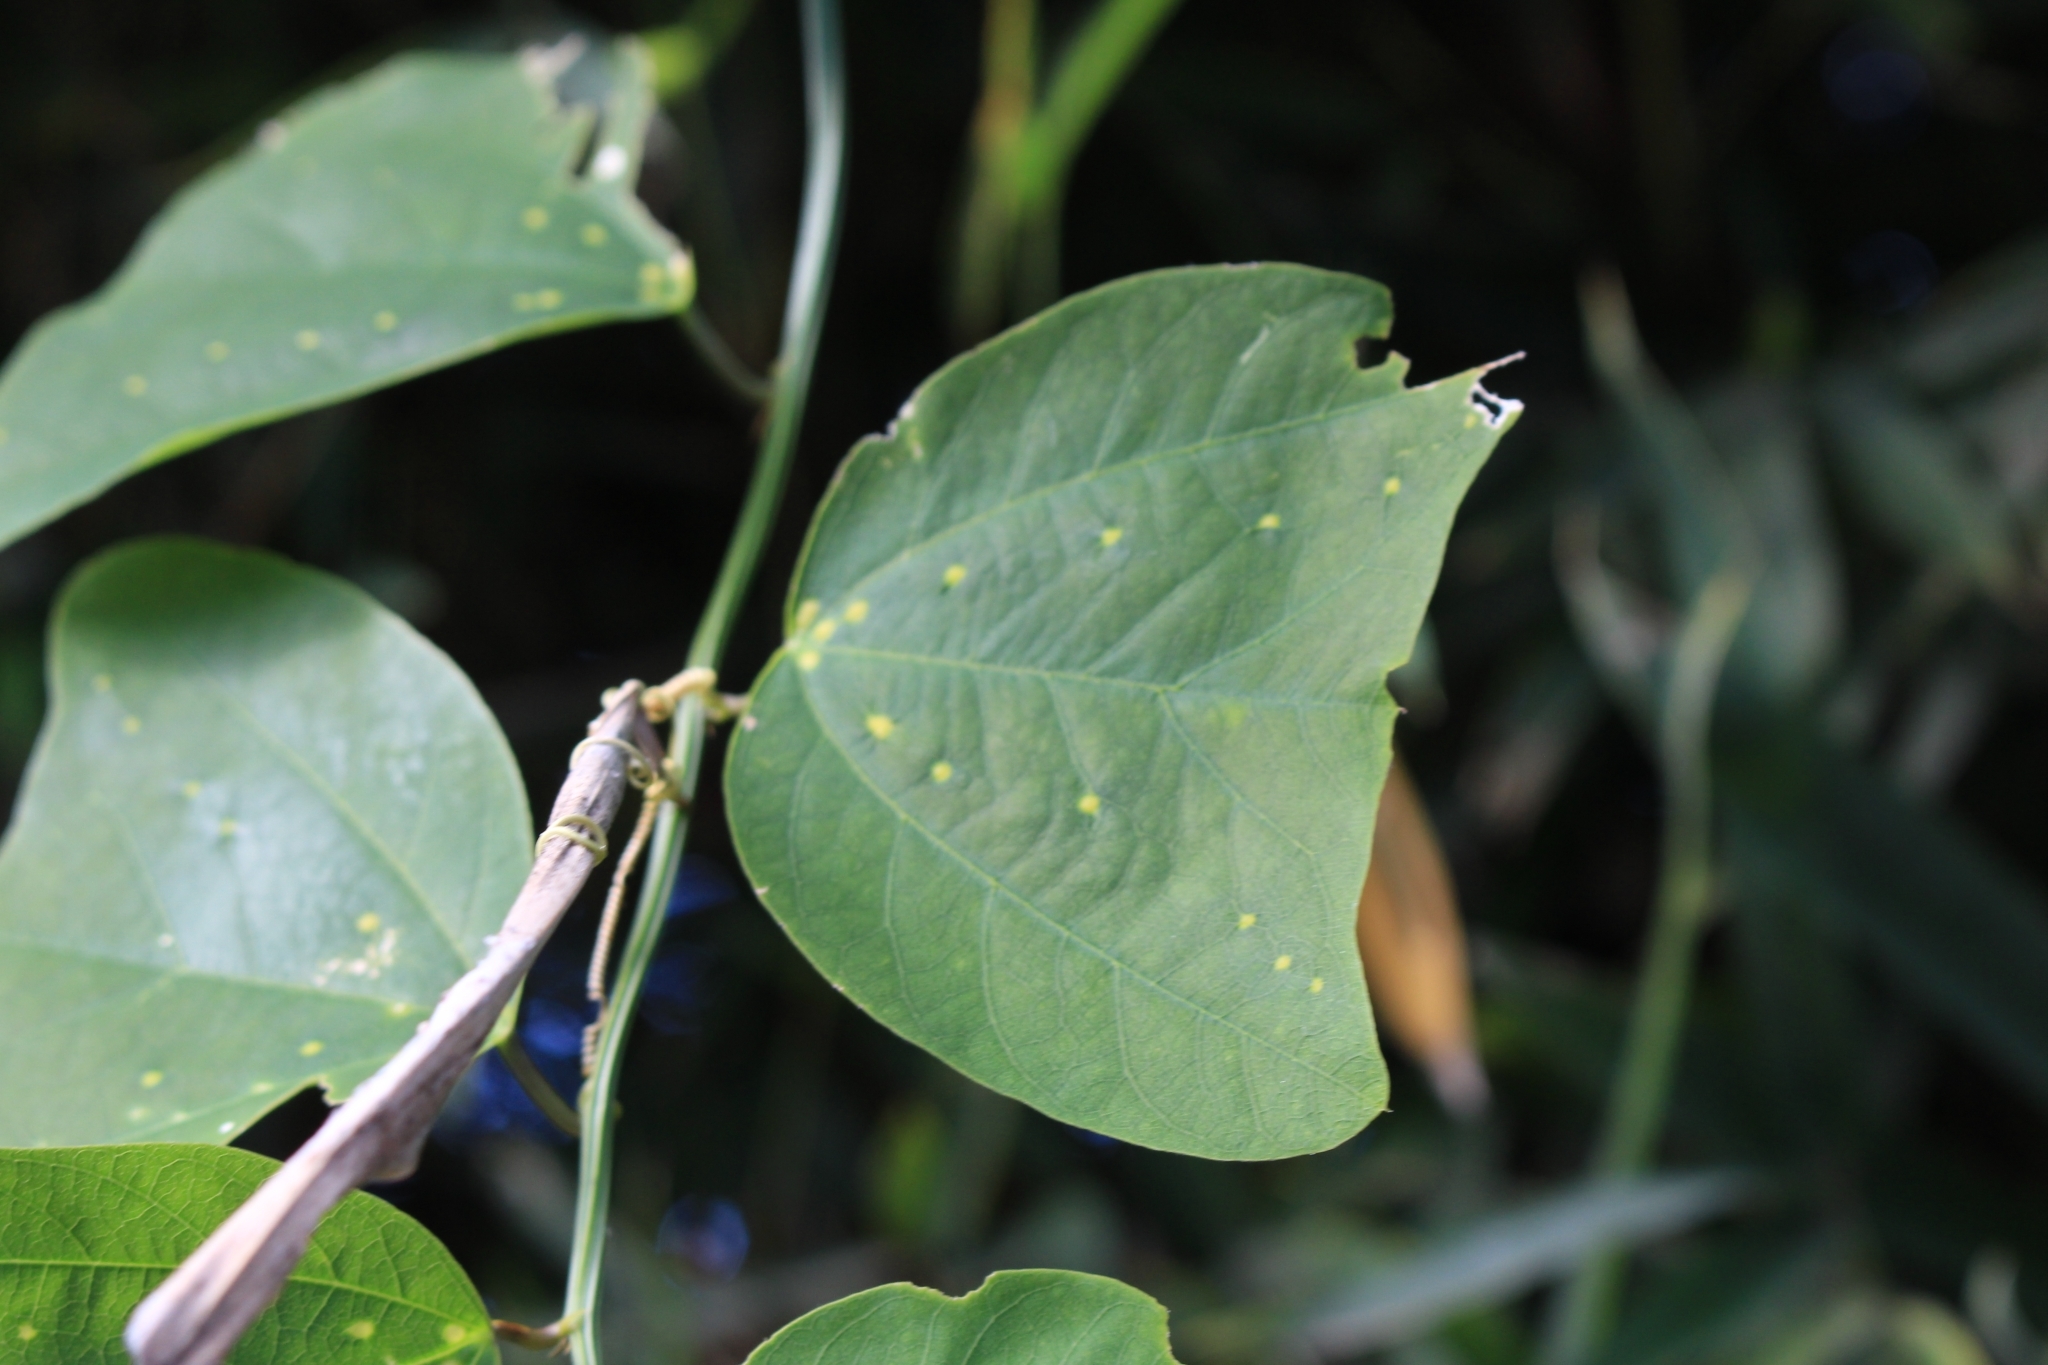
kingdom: Plantae
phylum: Tracheophyta
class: Magnoliopsida
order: Malpighiales
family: Passifloraceae
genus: Passiflora
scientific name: Passiflora biflora
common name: Twoflower passionflower
